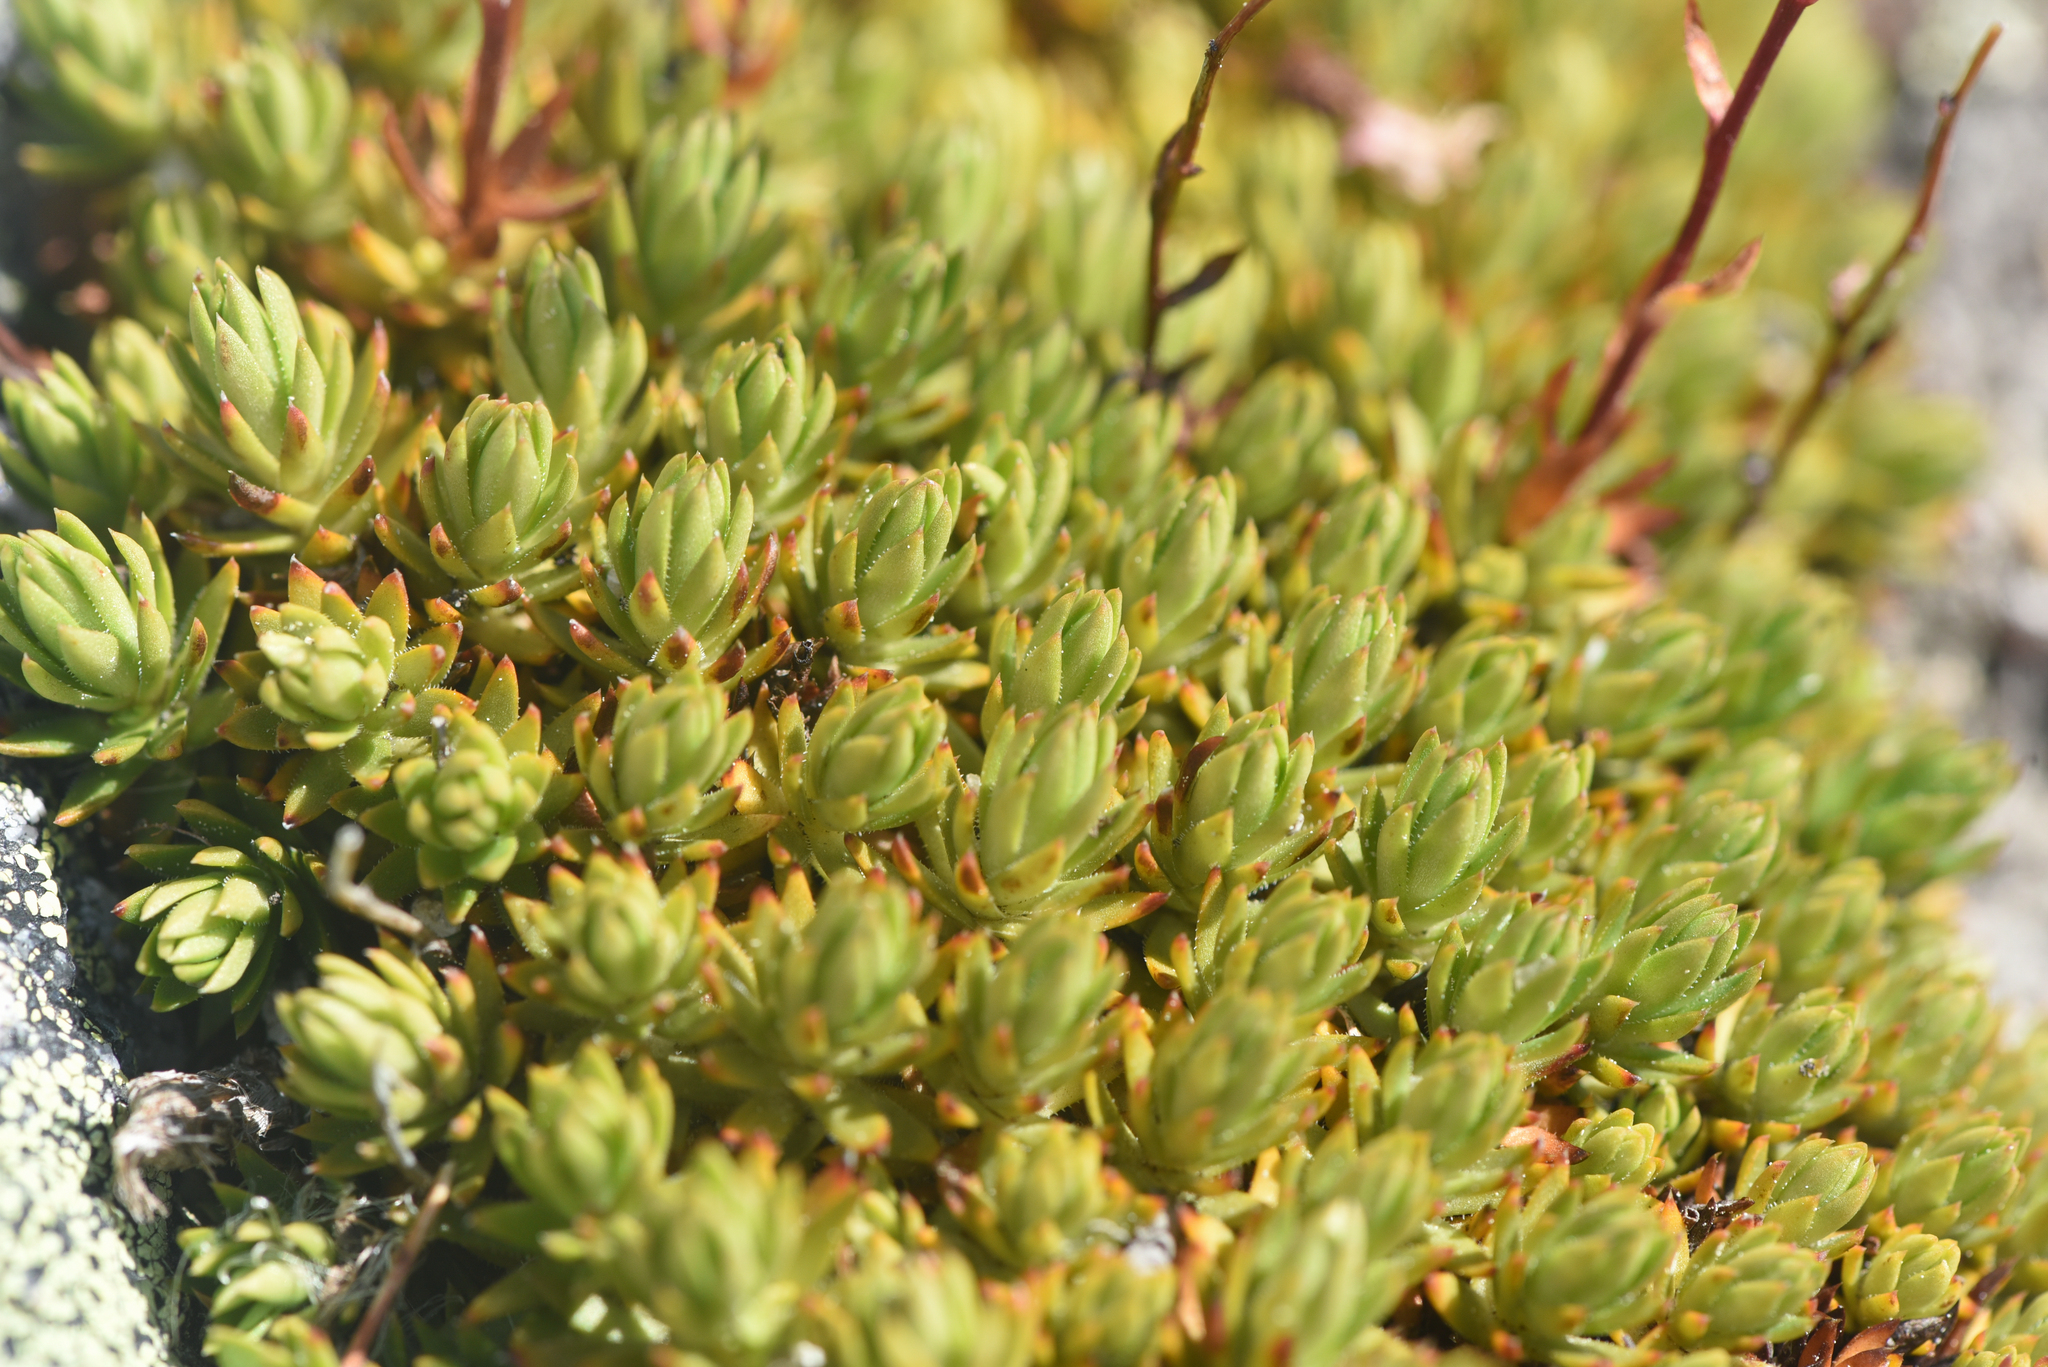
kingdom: Plantae
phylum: Tracheophyta
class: Magnoliopsida
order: Saxifragales
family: Saxifragaceae
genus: Saxifraga
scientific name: Saxifraga bronchialis
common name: Matted saxifrage
